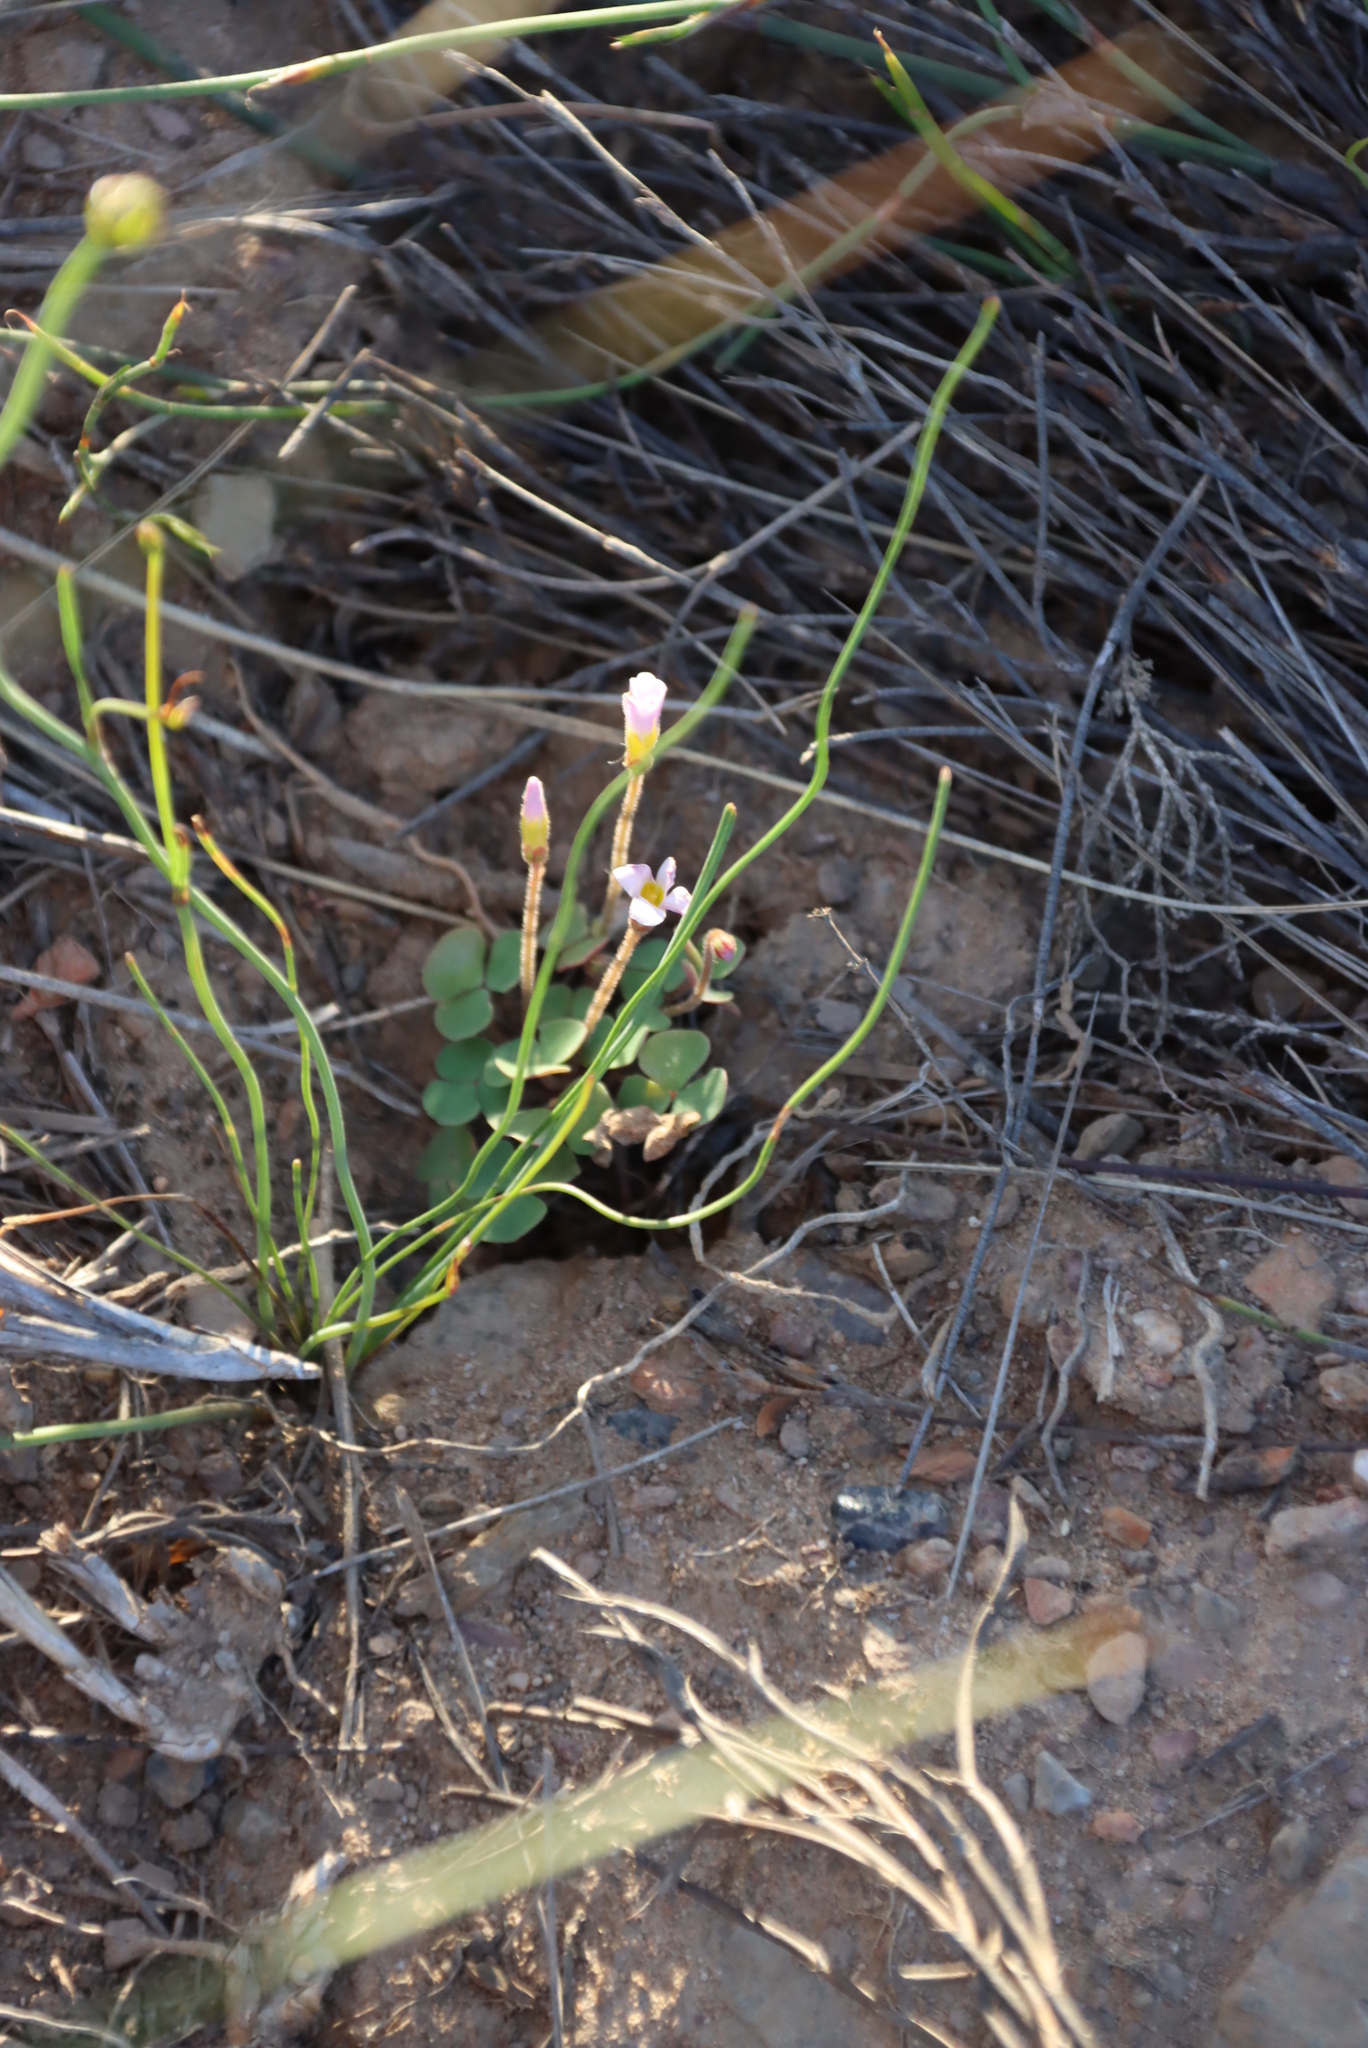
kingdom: Plantae
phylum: Tracheophyta
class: Magnoliopsida
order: Oxalidales
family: Oxalidaceae
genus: Oxalis
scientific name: Oxalis punctata
